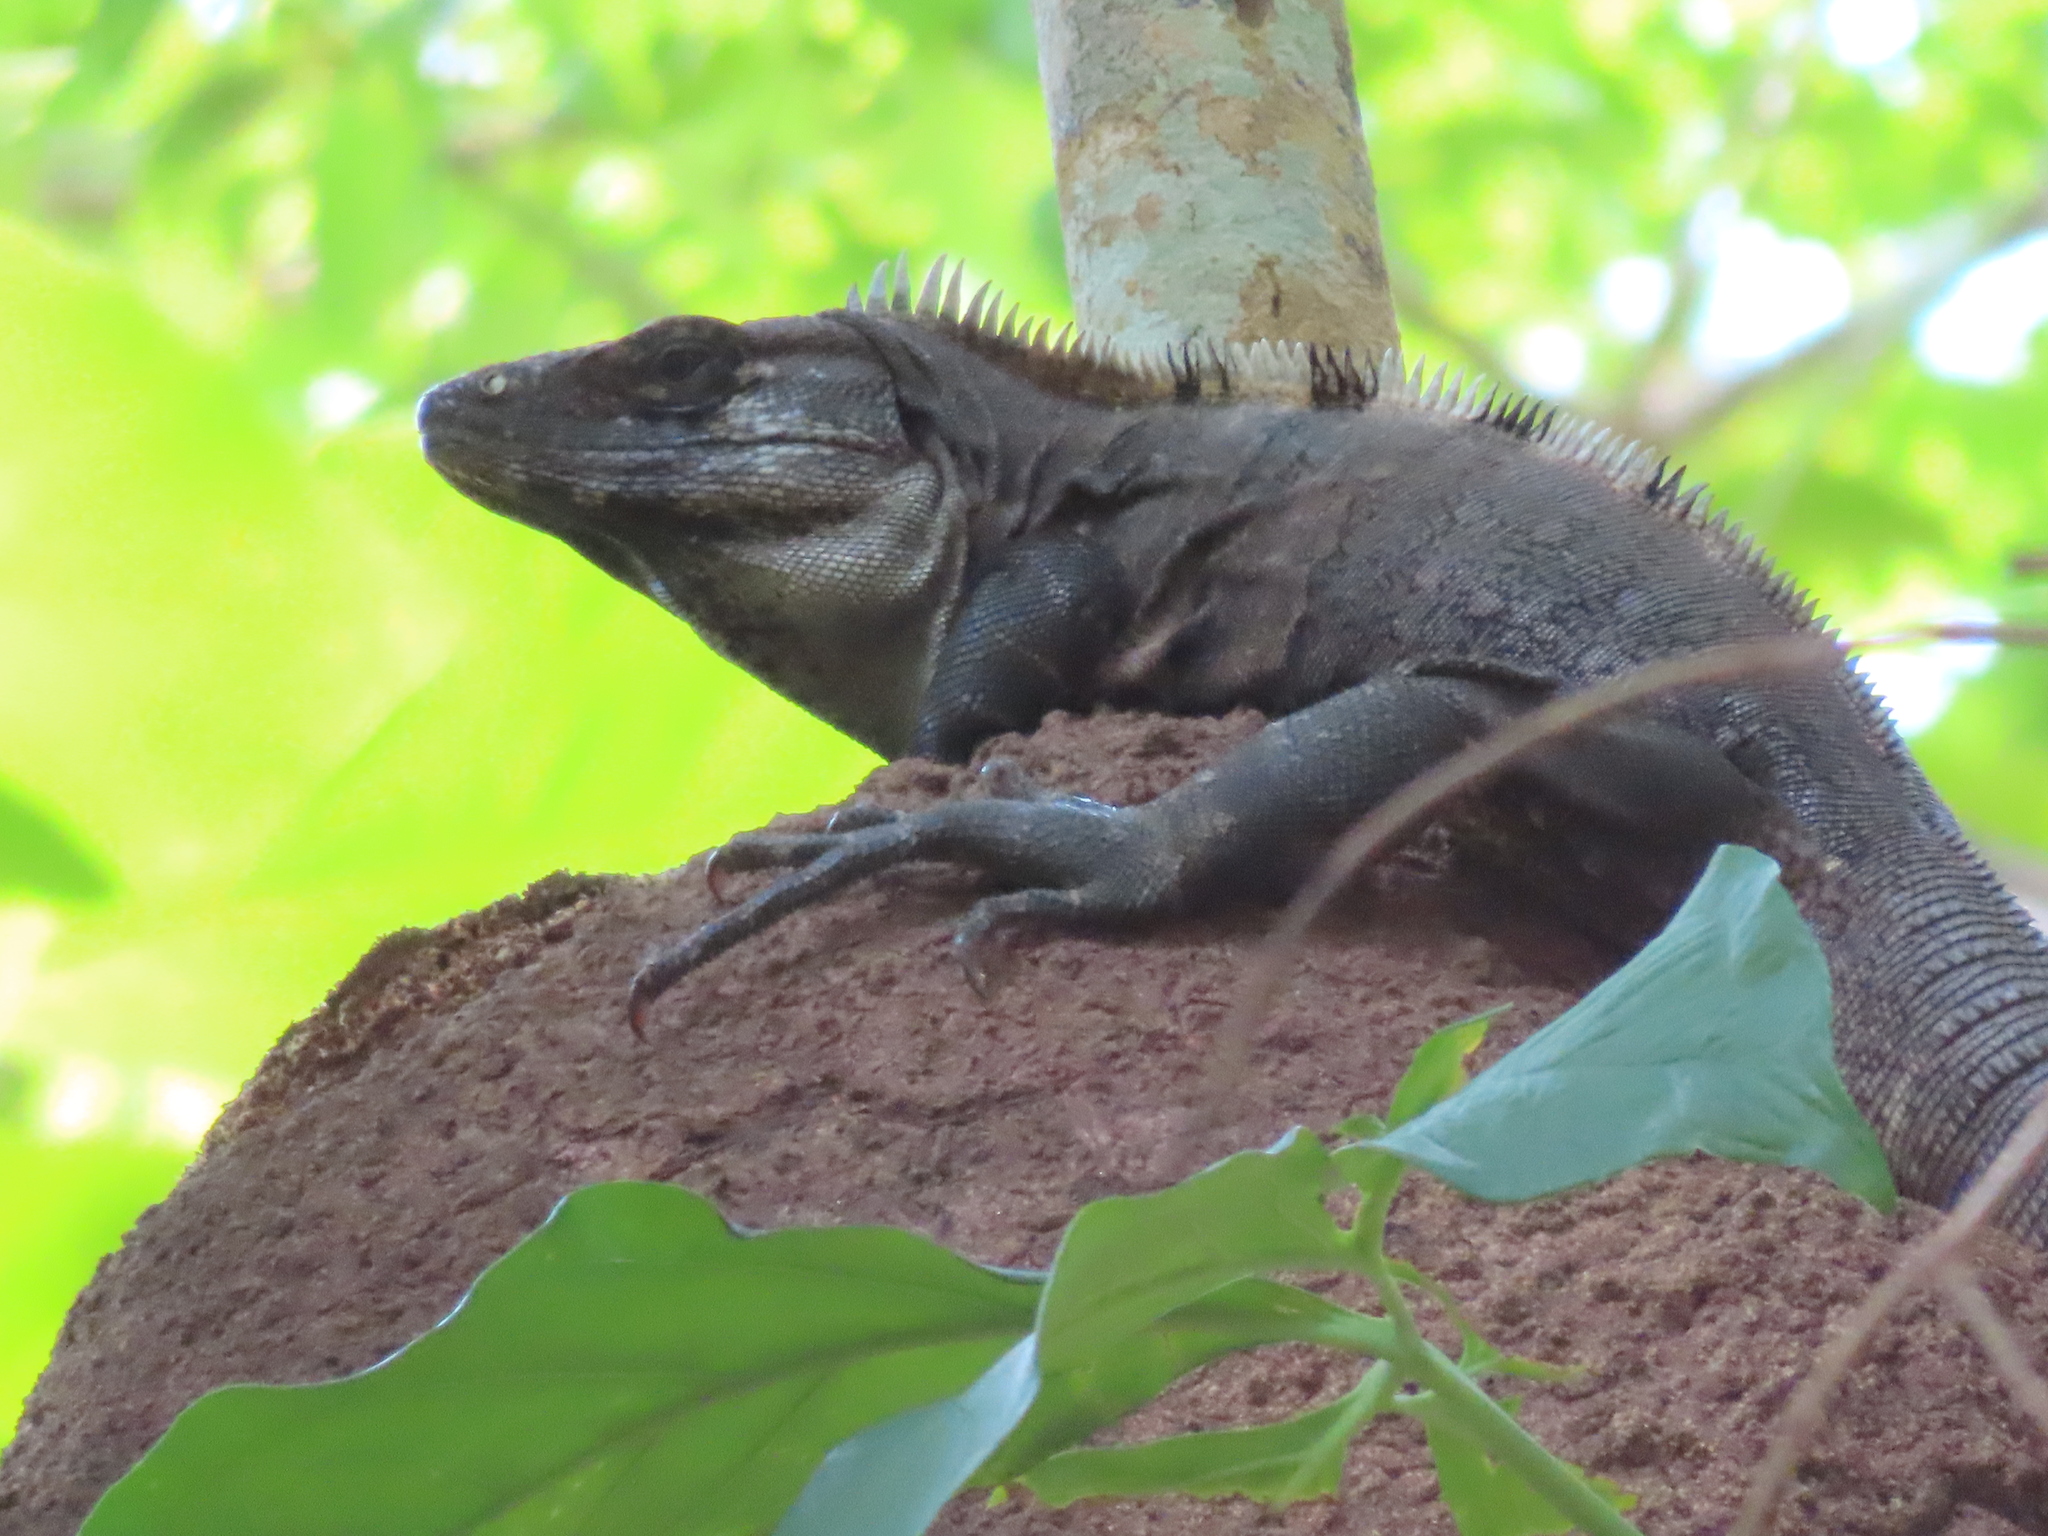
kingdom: Animalia
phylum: Chordata
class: Squamata
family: Iguanidae
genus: Ctenosaura
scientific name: Ctenosaura similis
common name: Black spiny-tailed iguana
